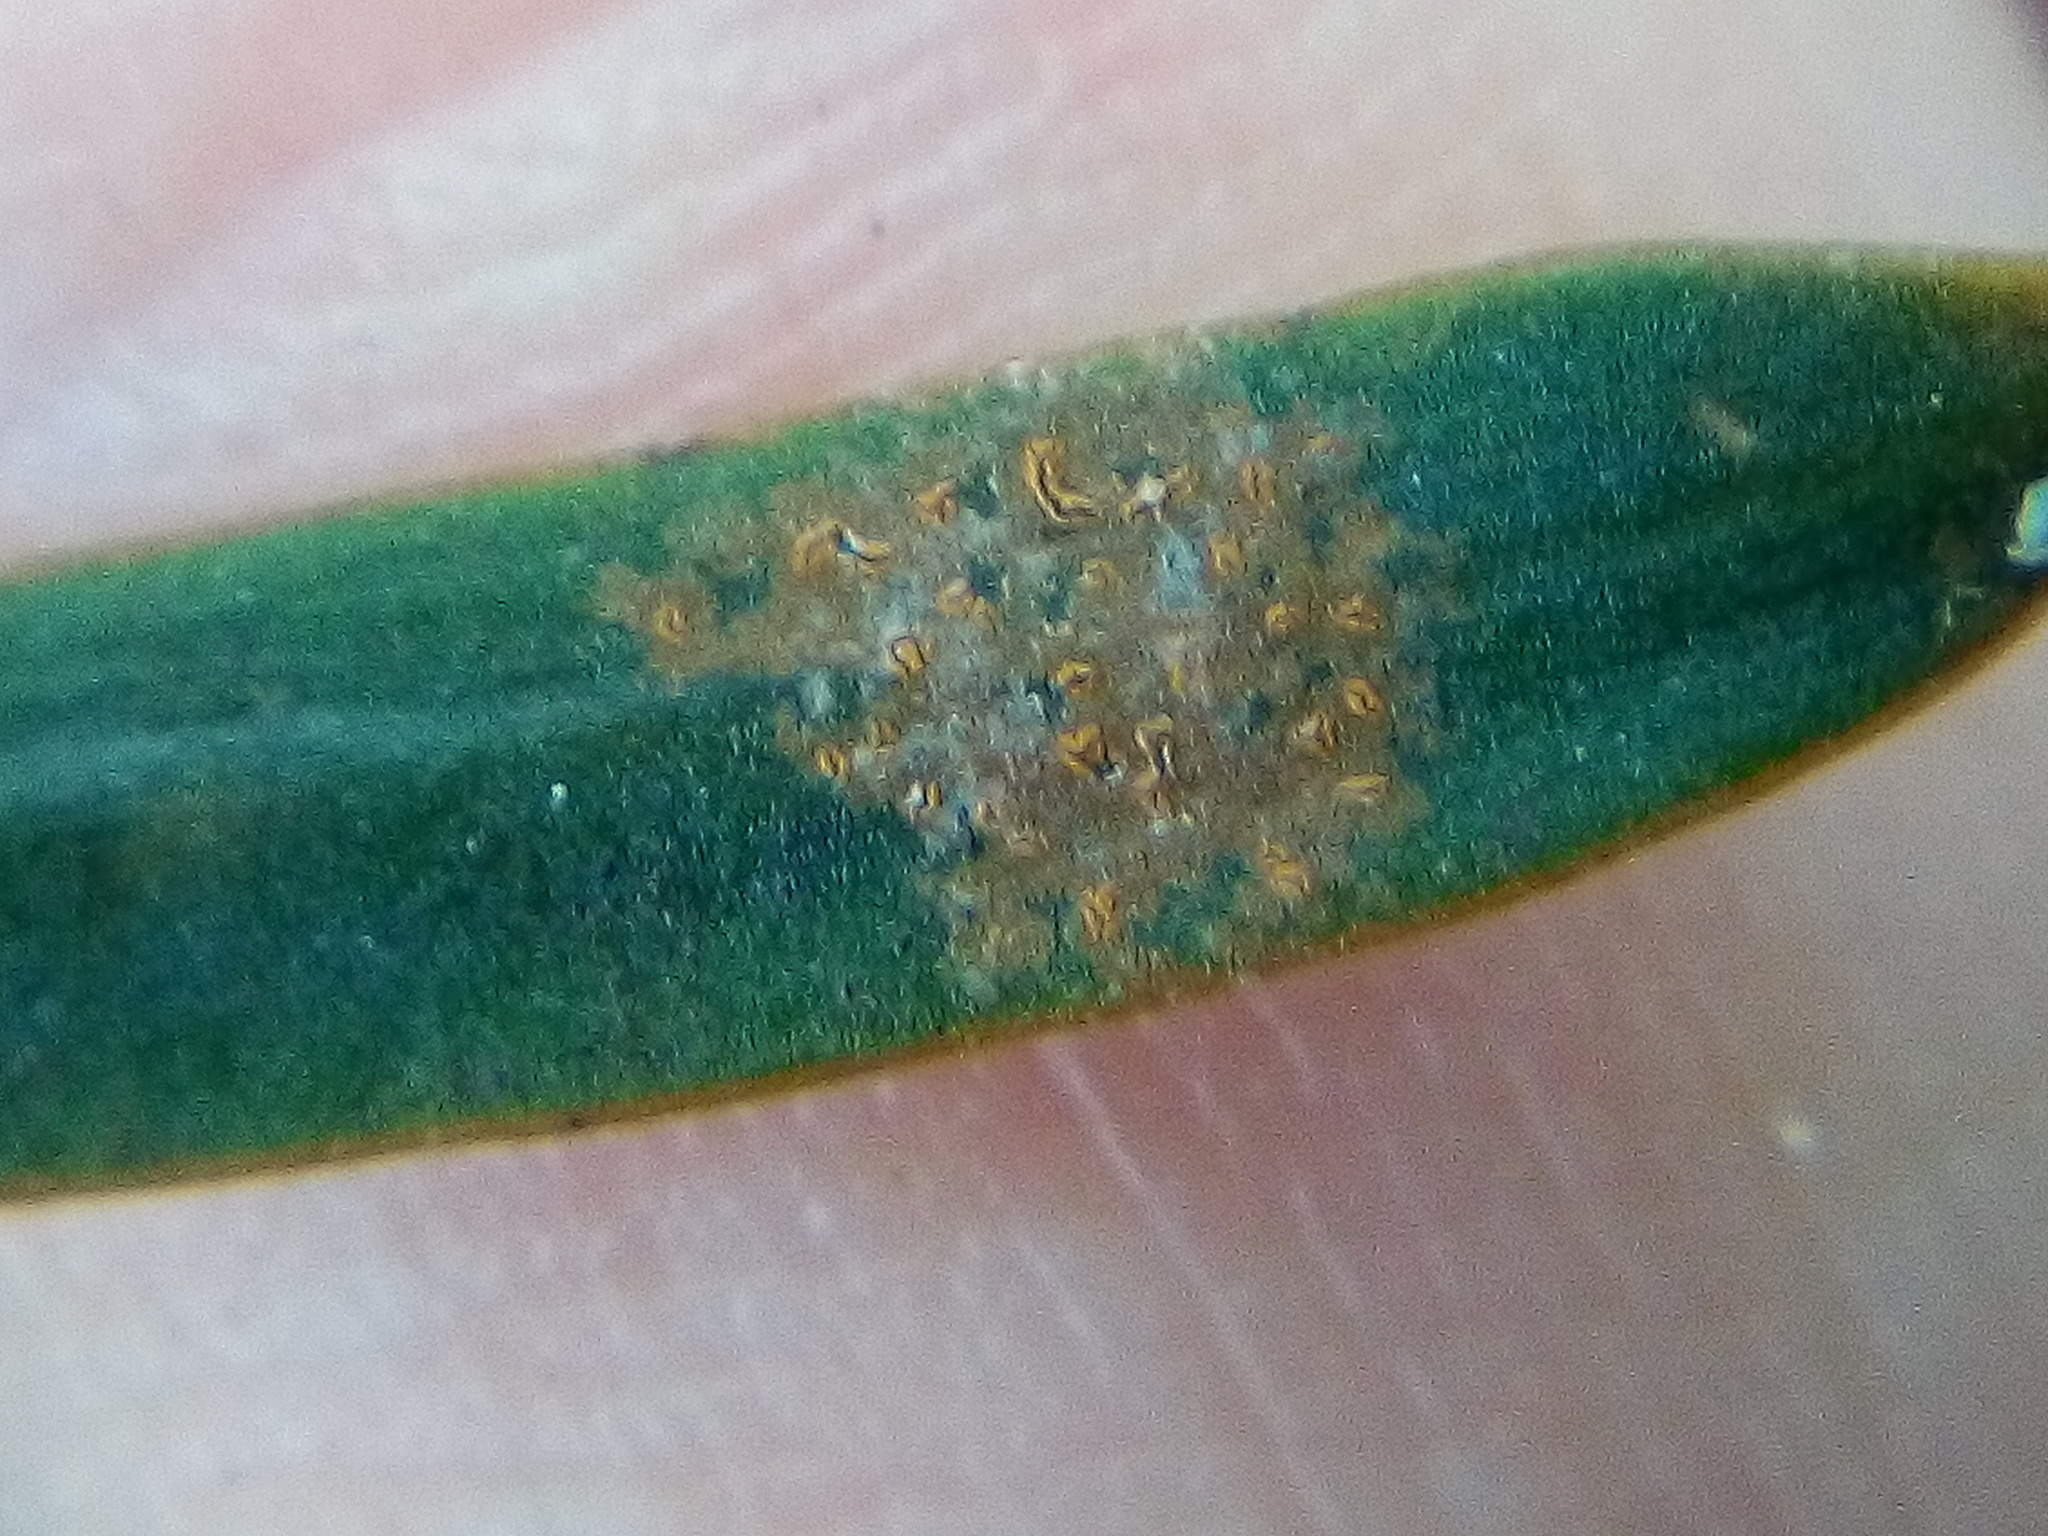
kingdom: Fungi
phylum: Ascomycota
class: Arthoniomycetes
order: Arthoniales
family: Roccellaceae
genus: Enterographa
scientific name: Enterographa bella
